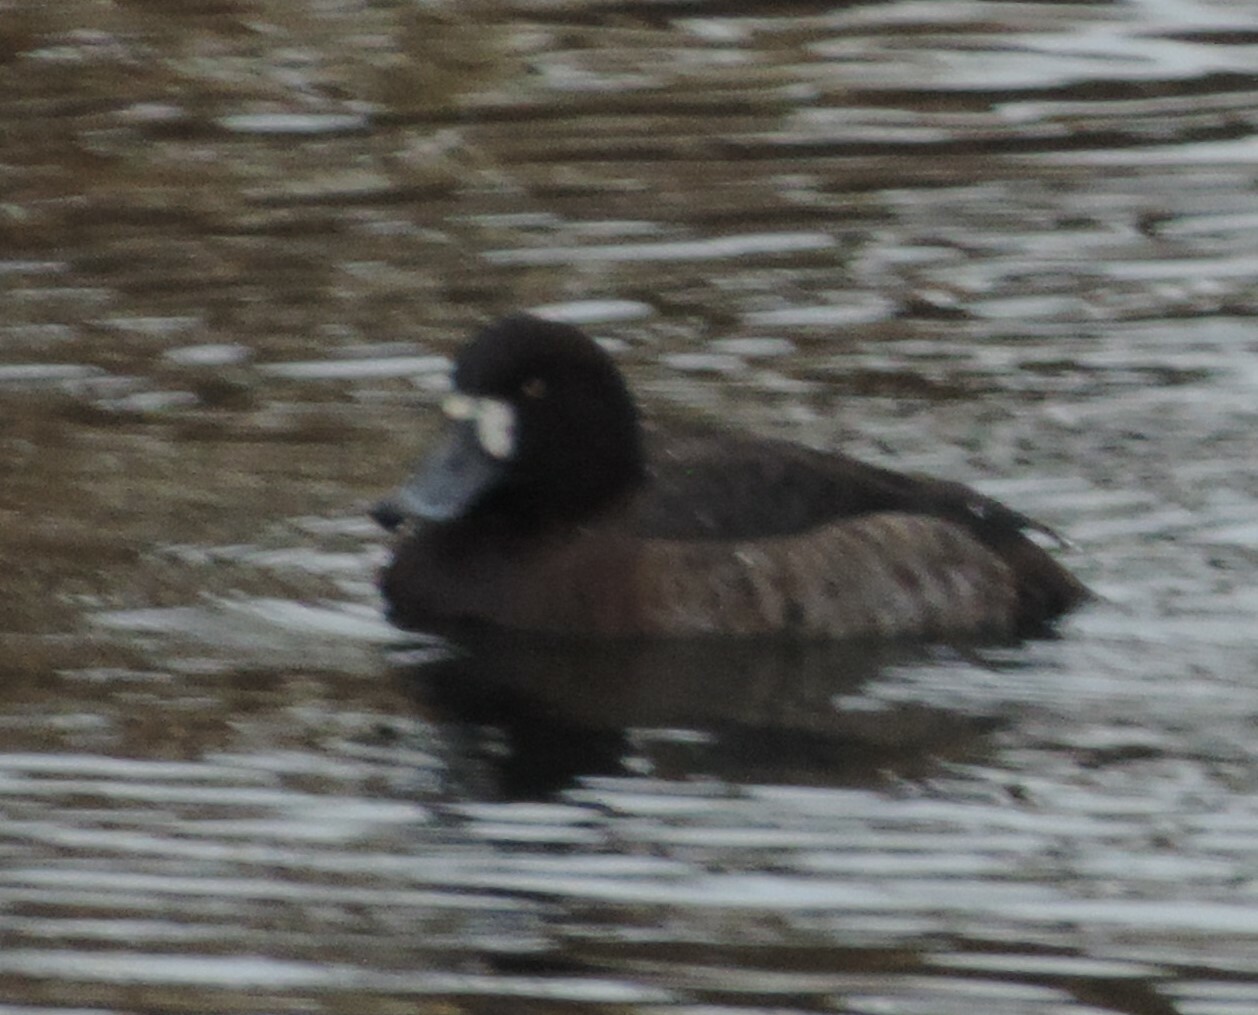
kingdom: Animalia
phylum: Chordata
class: Aves
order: Anseriformes
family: Anatidae
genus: Aythya
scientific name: Aythya marila
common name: Greater scaup
